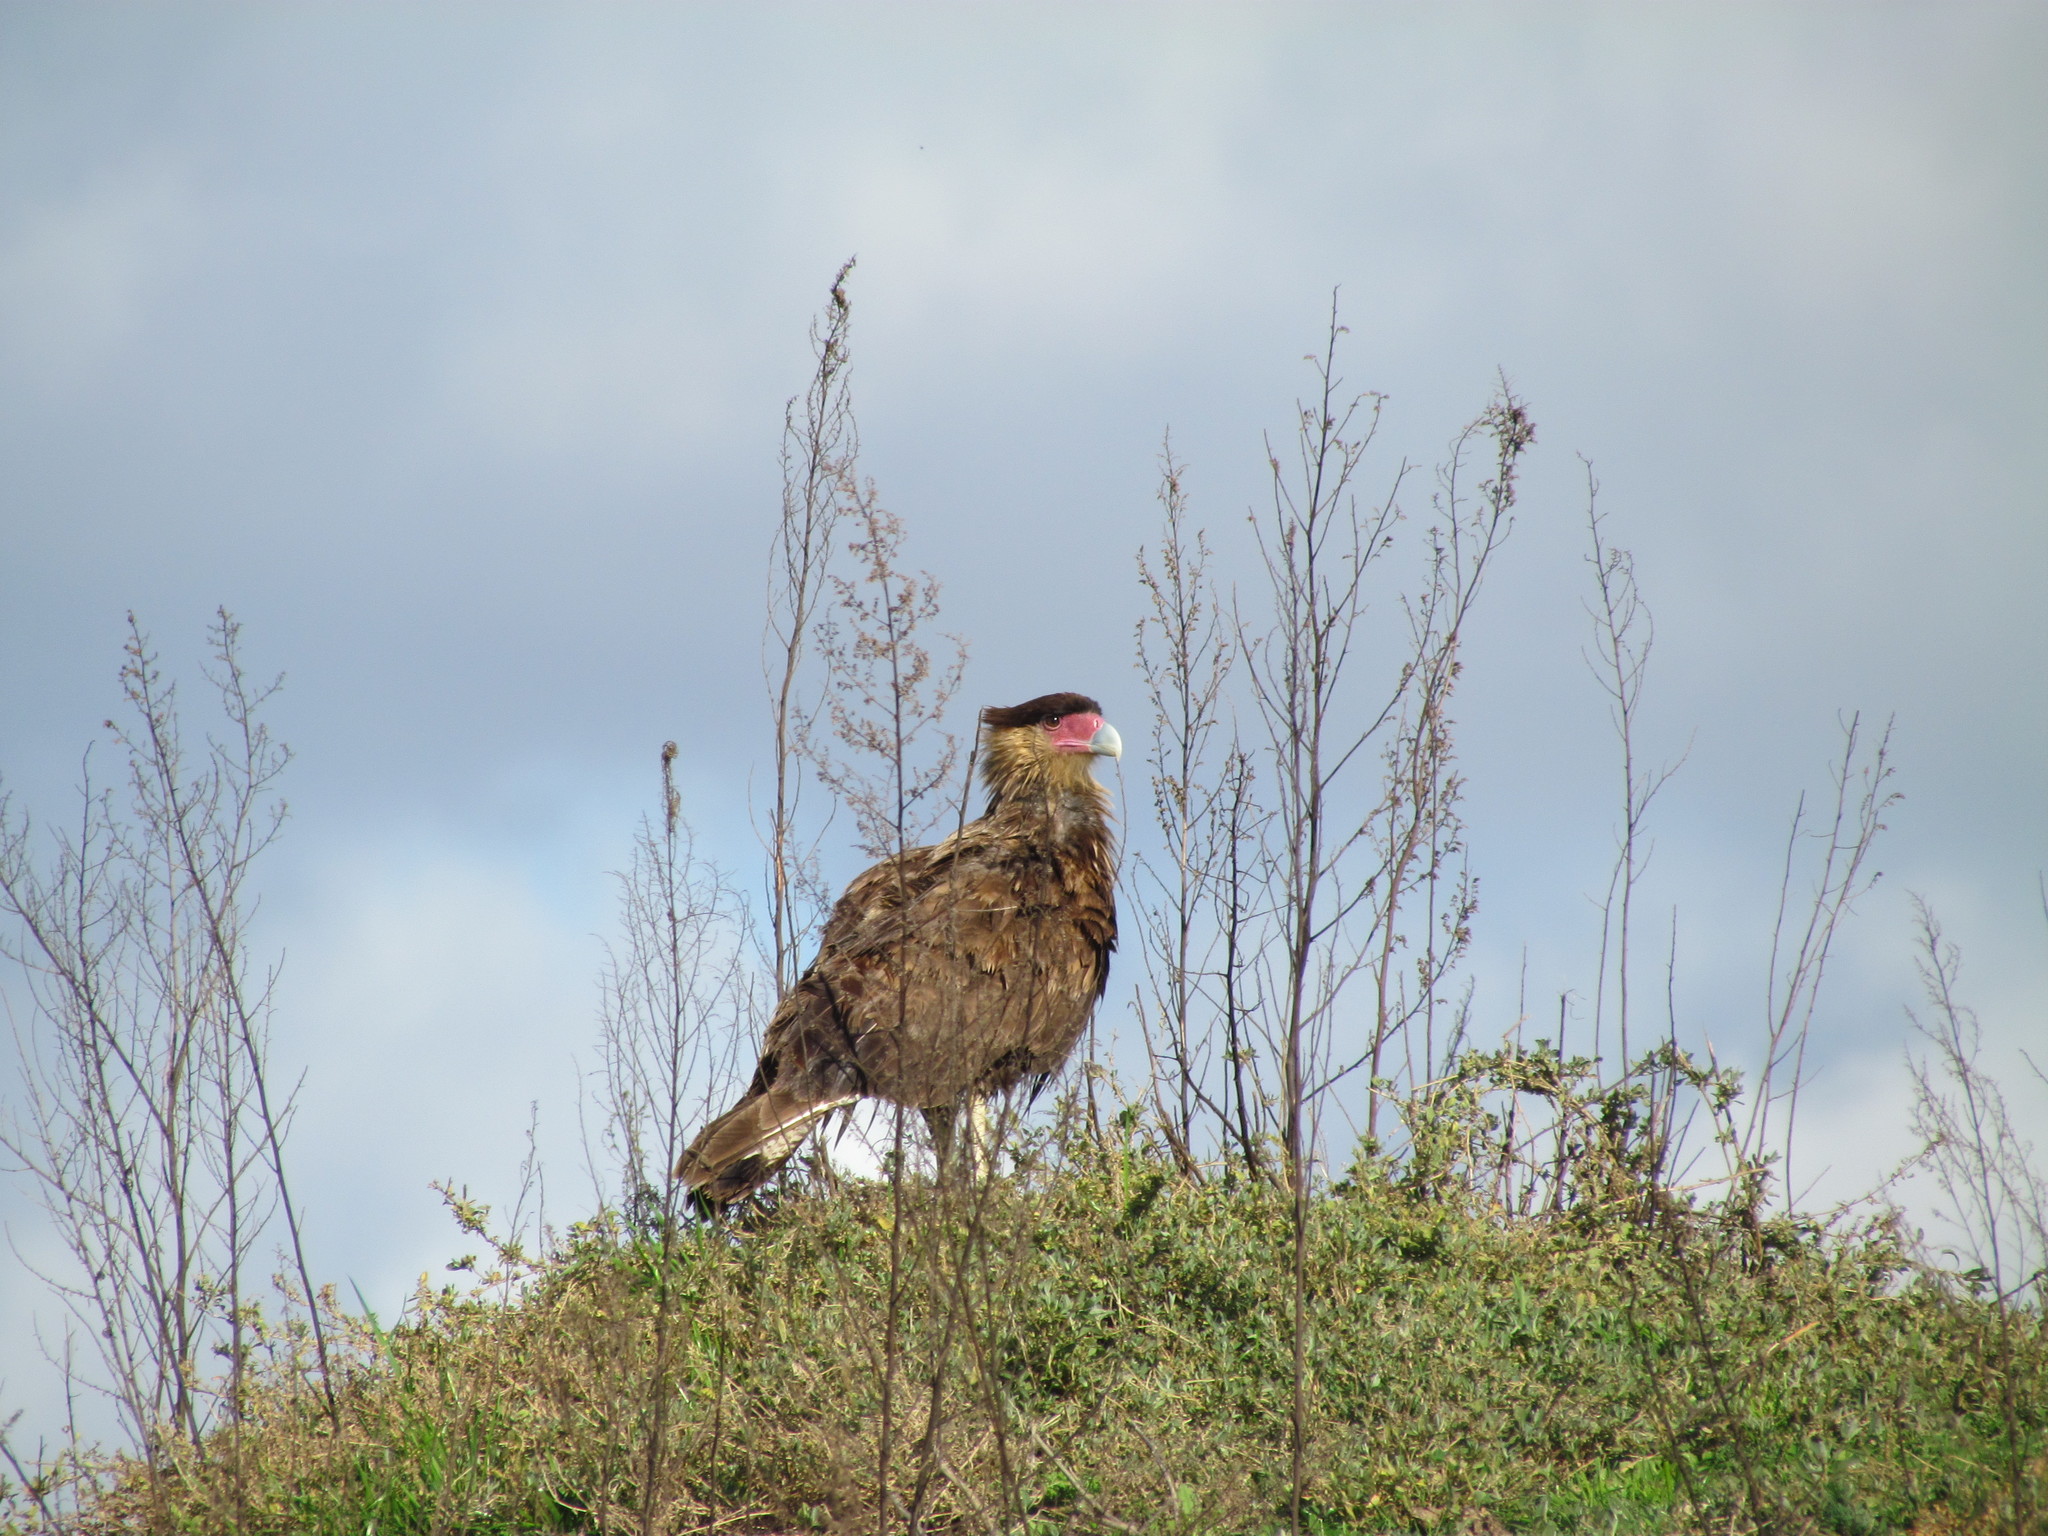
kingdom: Animalia
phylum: Chordata
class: Aves
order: Falconiformes
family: Falconidae
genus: Caracara
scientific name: Caracara plancus
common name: Southern caracara
